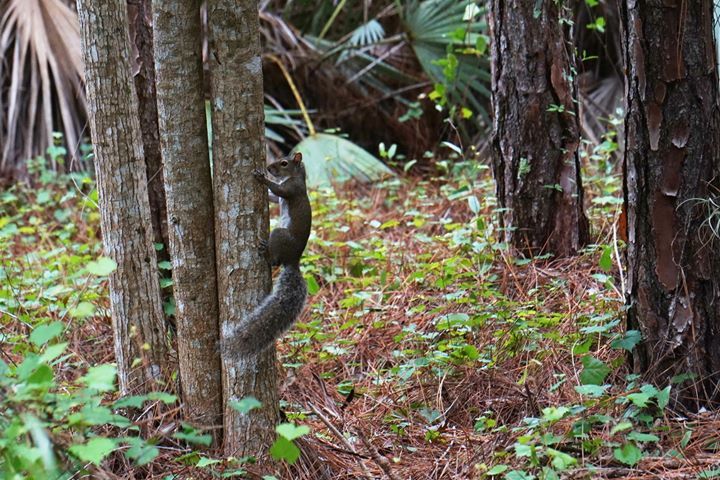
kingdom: Animalia
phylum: Chordata
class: Mammalia
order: Rodentia
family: Sciuridae
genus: Sciurus
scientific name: Sciurus carolinensis
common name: Eastern gray squirrel
